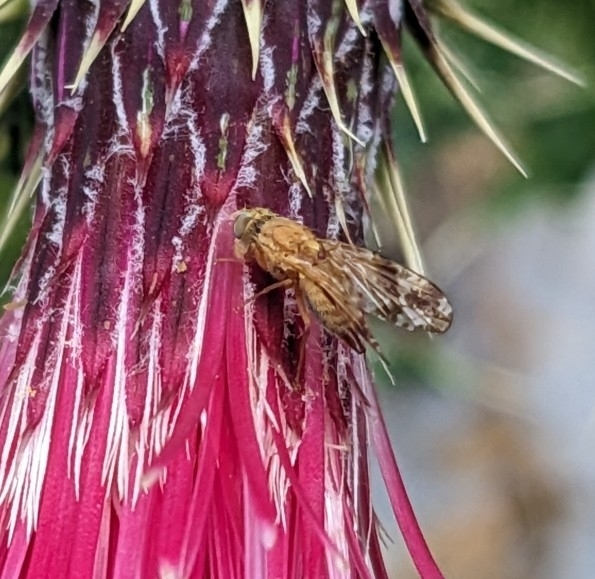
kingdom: Animalia
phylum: Arthropoda
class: Insecta
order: Diptera
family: Tephritidae
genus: Neotephritis
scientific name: Neotephritis rava
